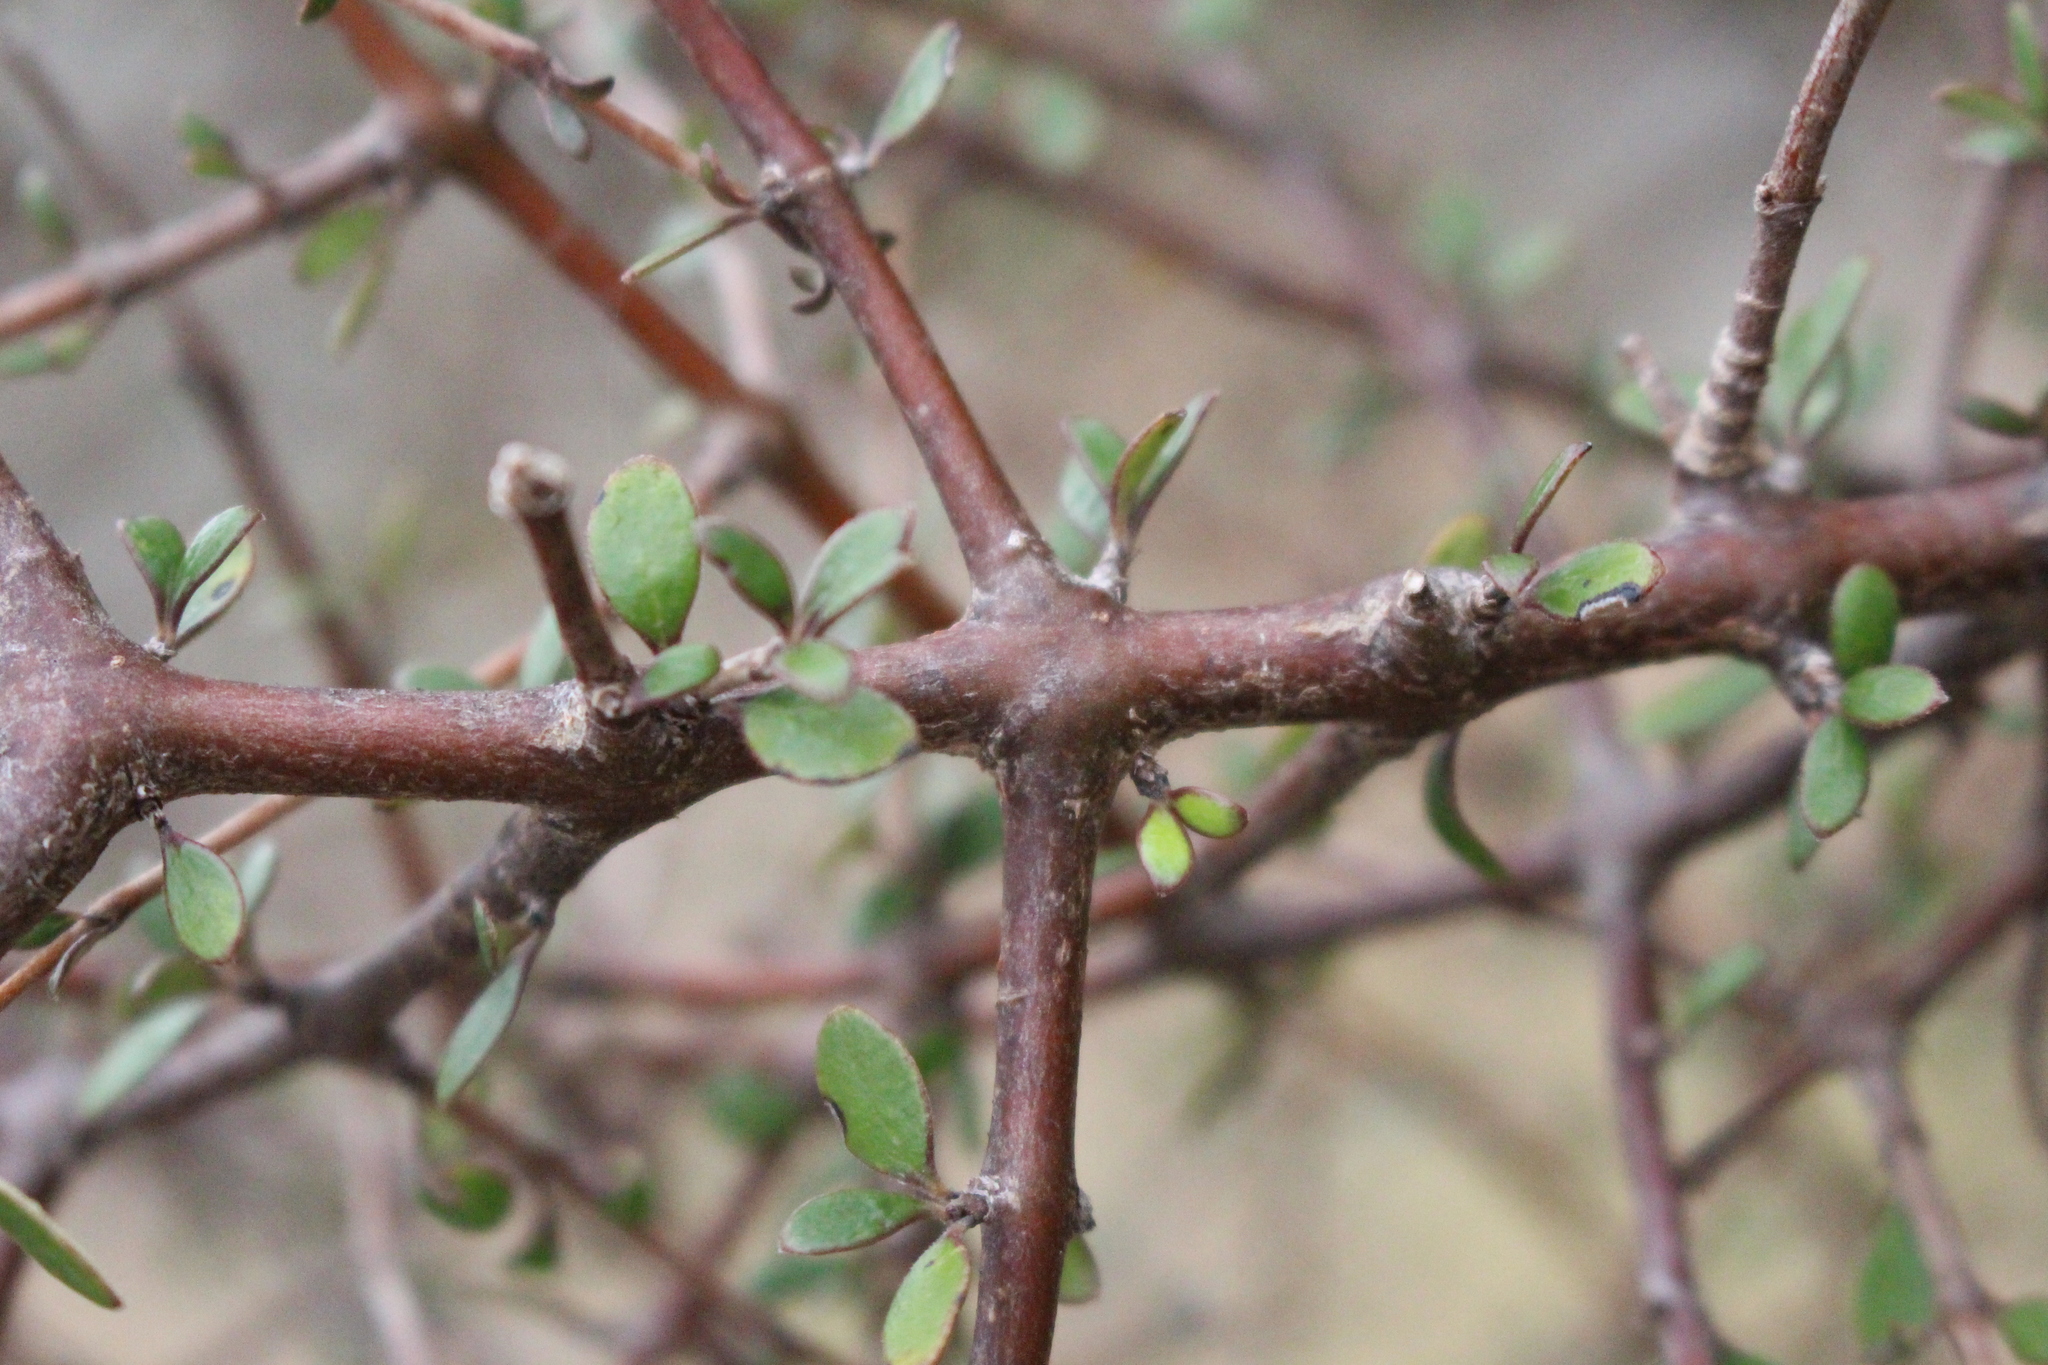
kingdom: Plantae
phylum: Tracheophyta
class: Magnoliopsida
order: Gentianales
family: Rubiaceae
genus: Coprosma
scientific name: Coprosma rigida
